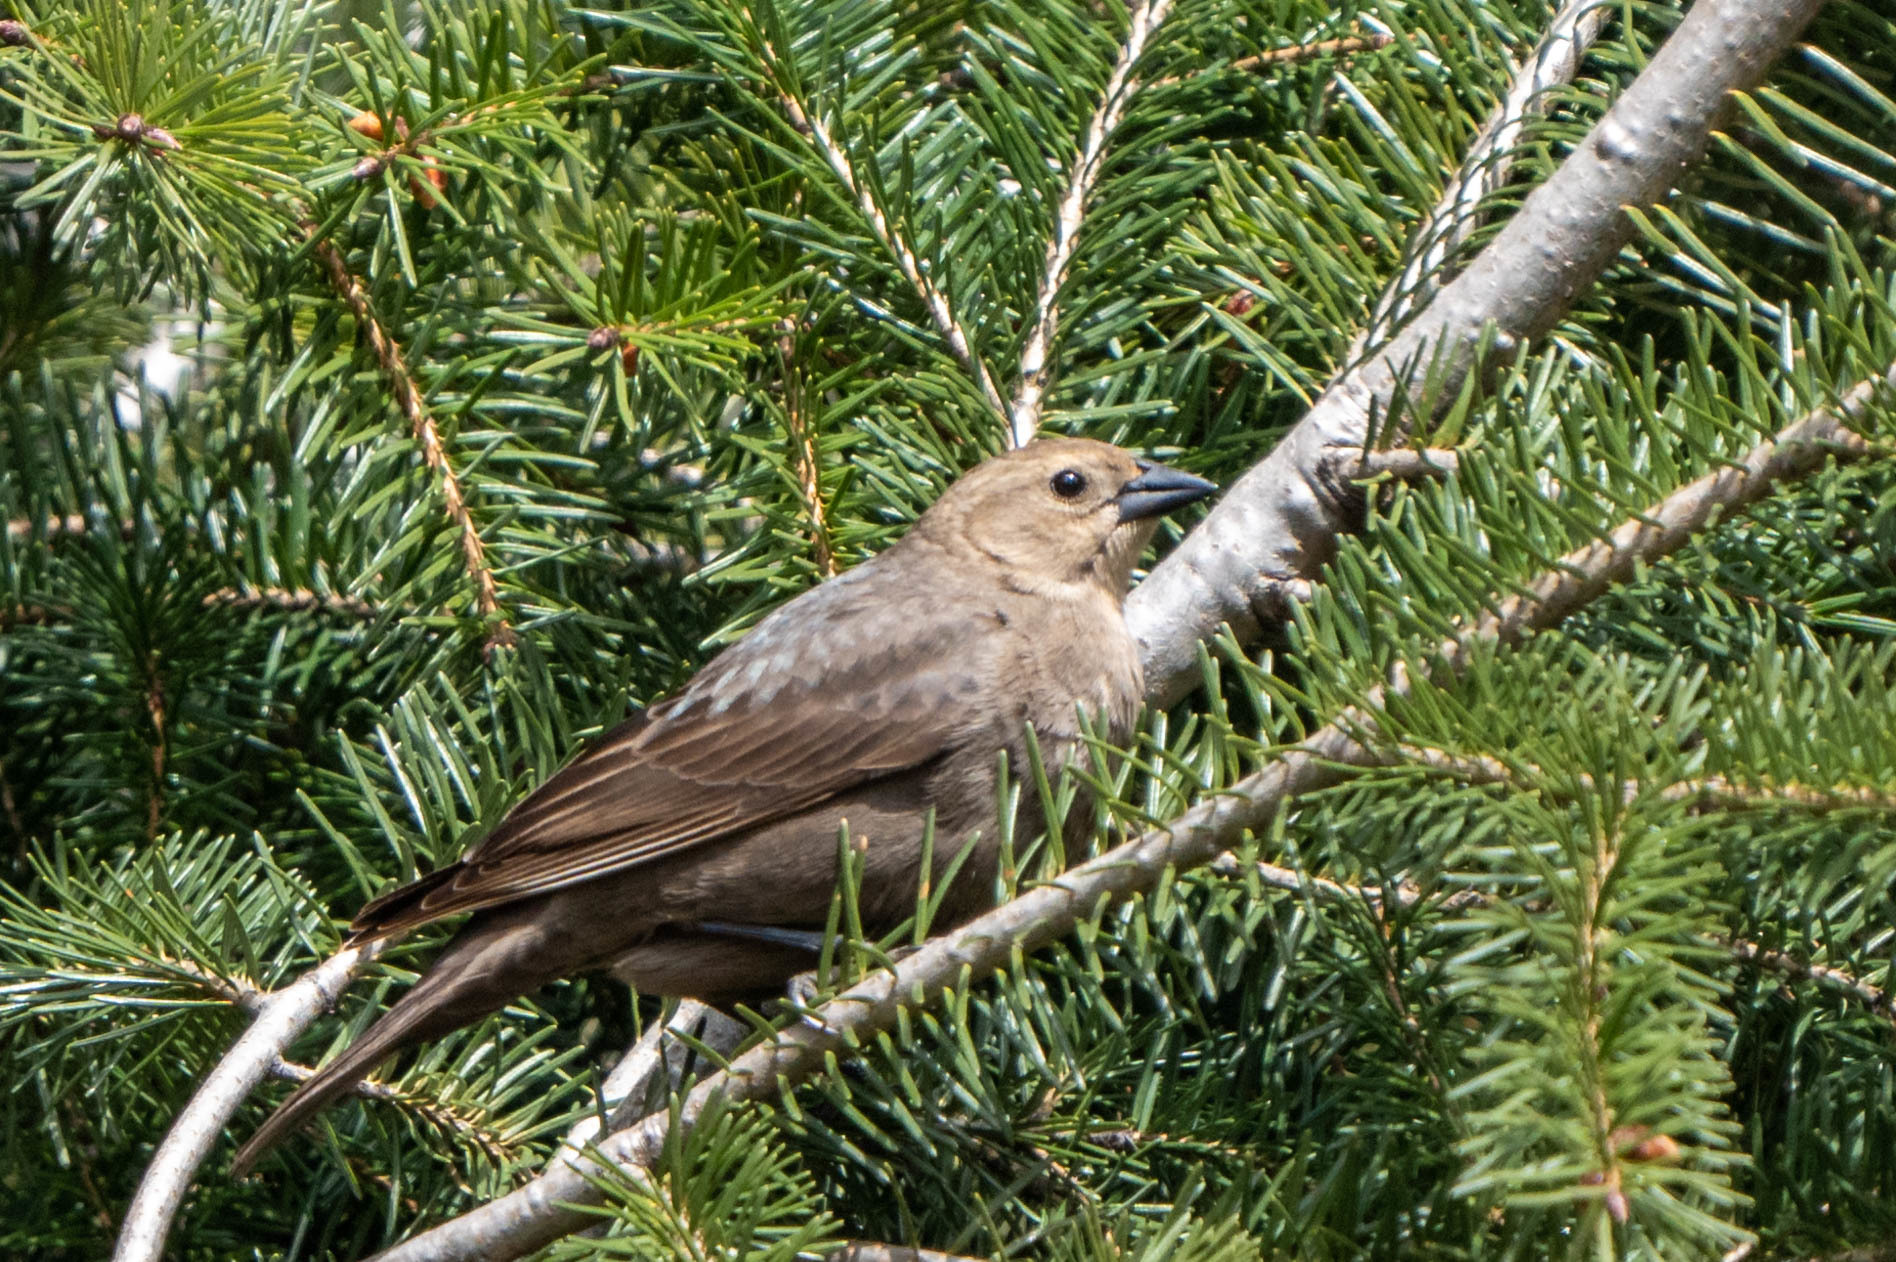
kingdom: Animalia
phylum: Chordata
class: Aves
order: Passeriformes
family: Icteridae
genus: Molothrus
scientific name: Molothrus ater
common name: Brown-headed cowbird
